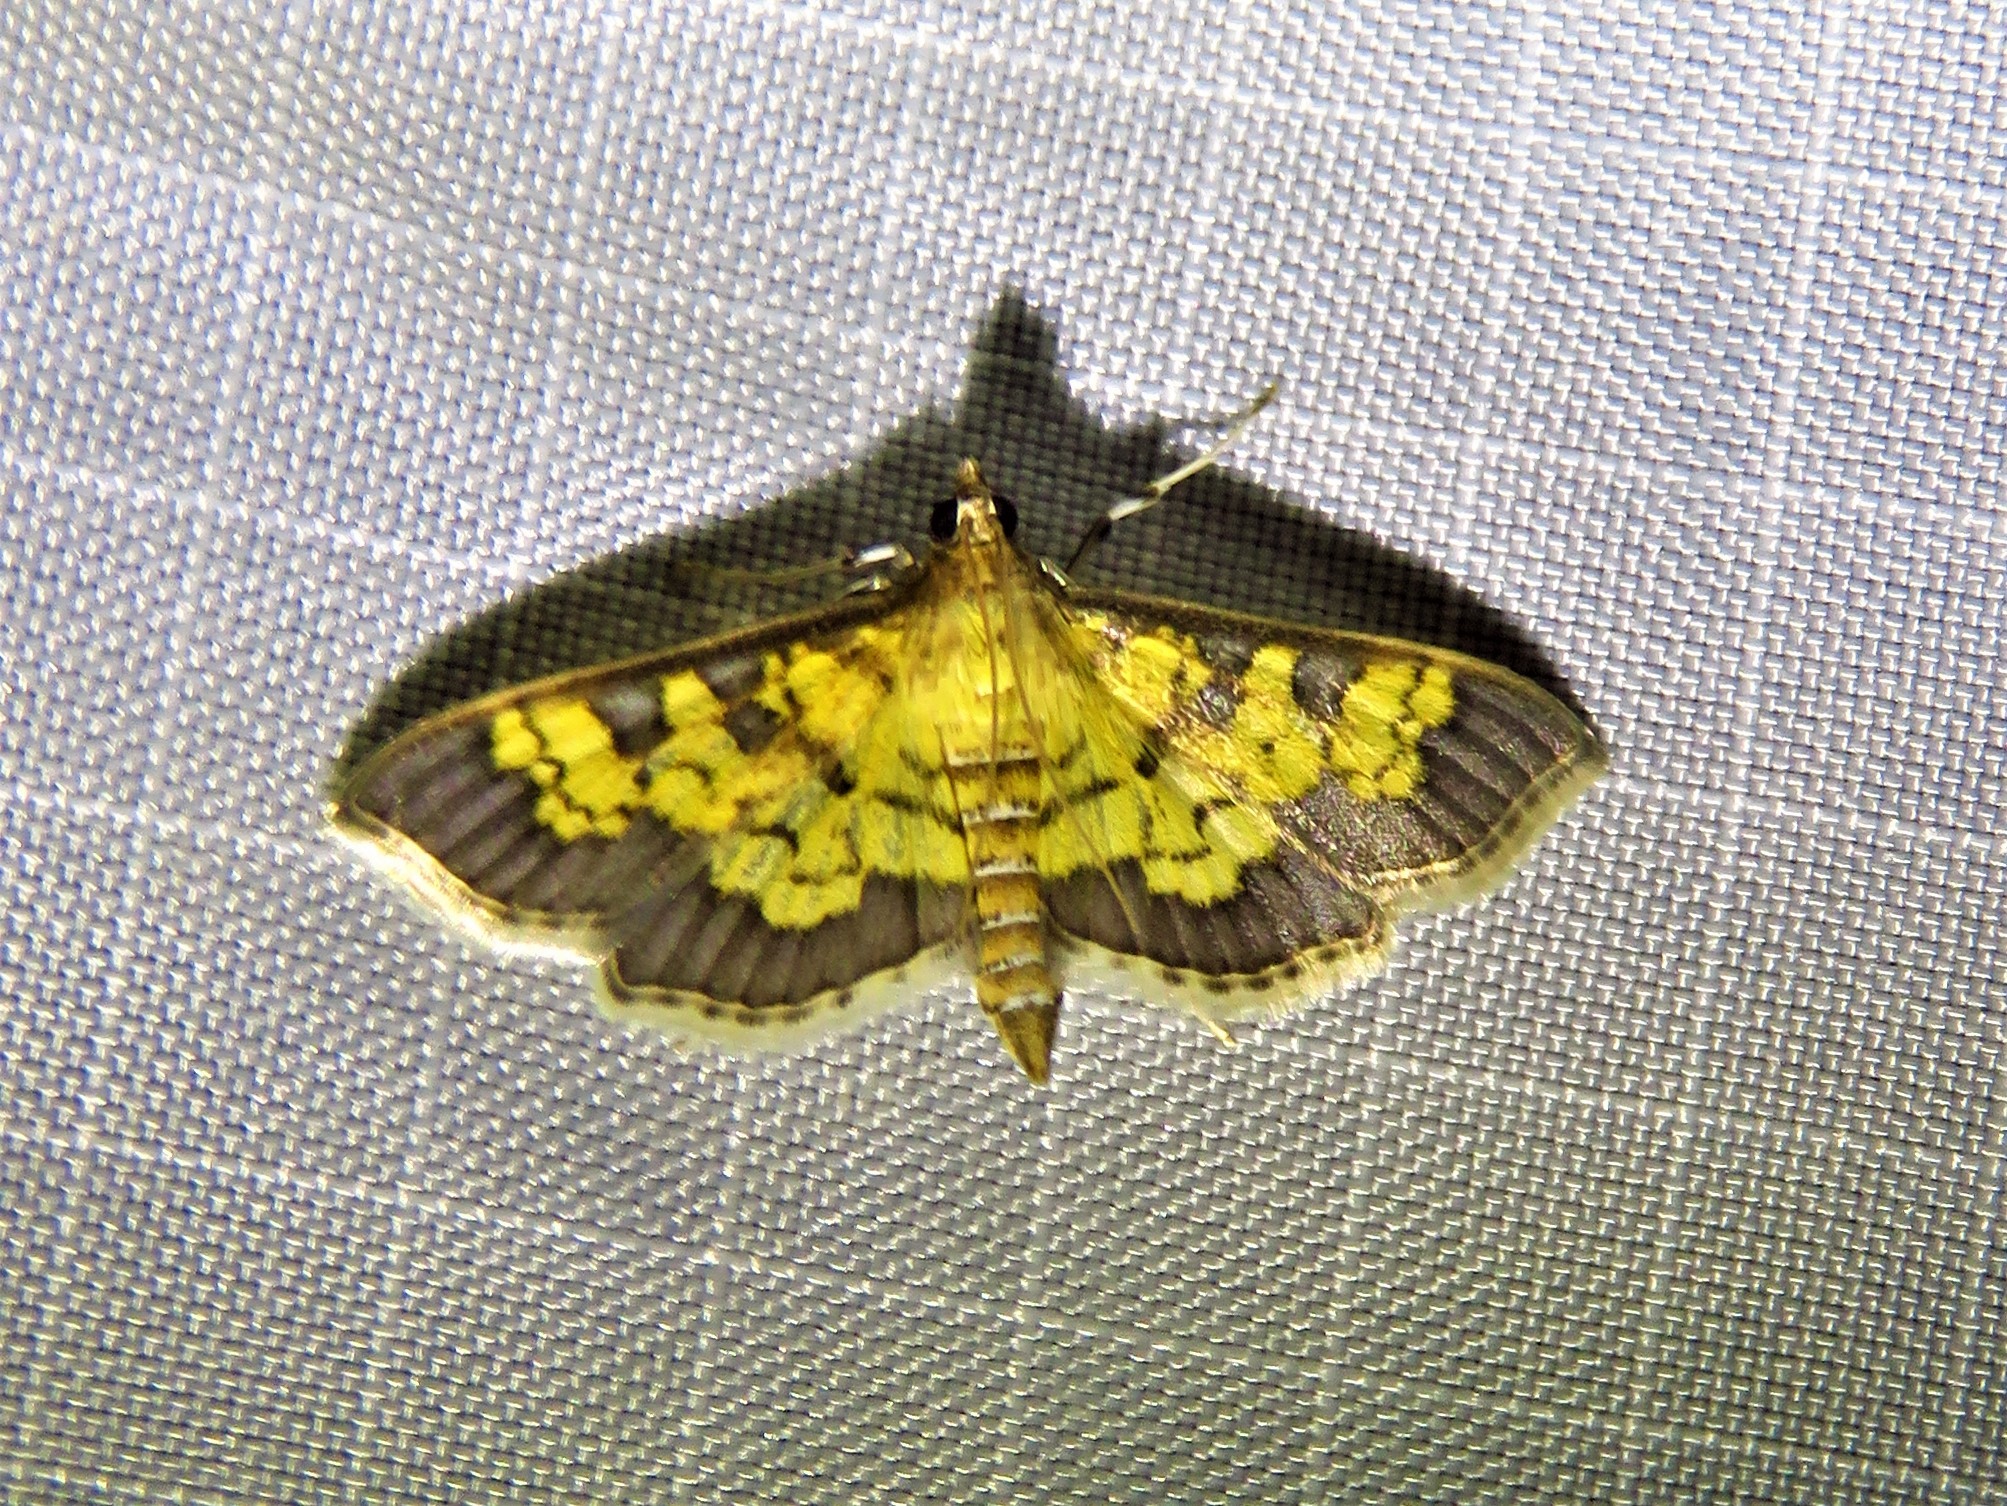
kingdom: Animalia
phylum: Arthropoda
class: Insecta
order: Lepidoptera
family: Crambidae
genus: Epipagis
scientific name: Epipagis adipaloides
